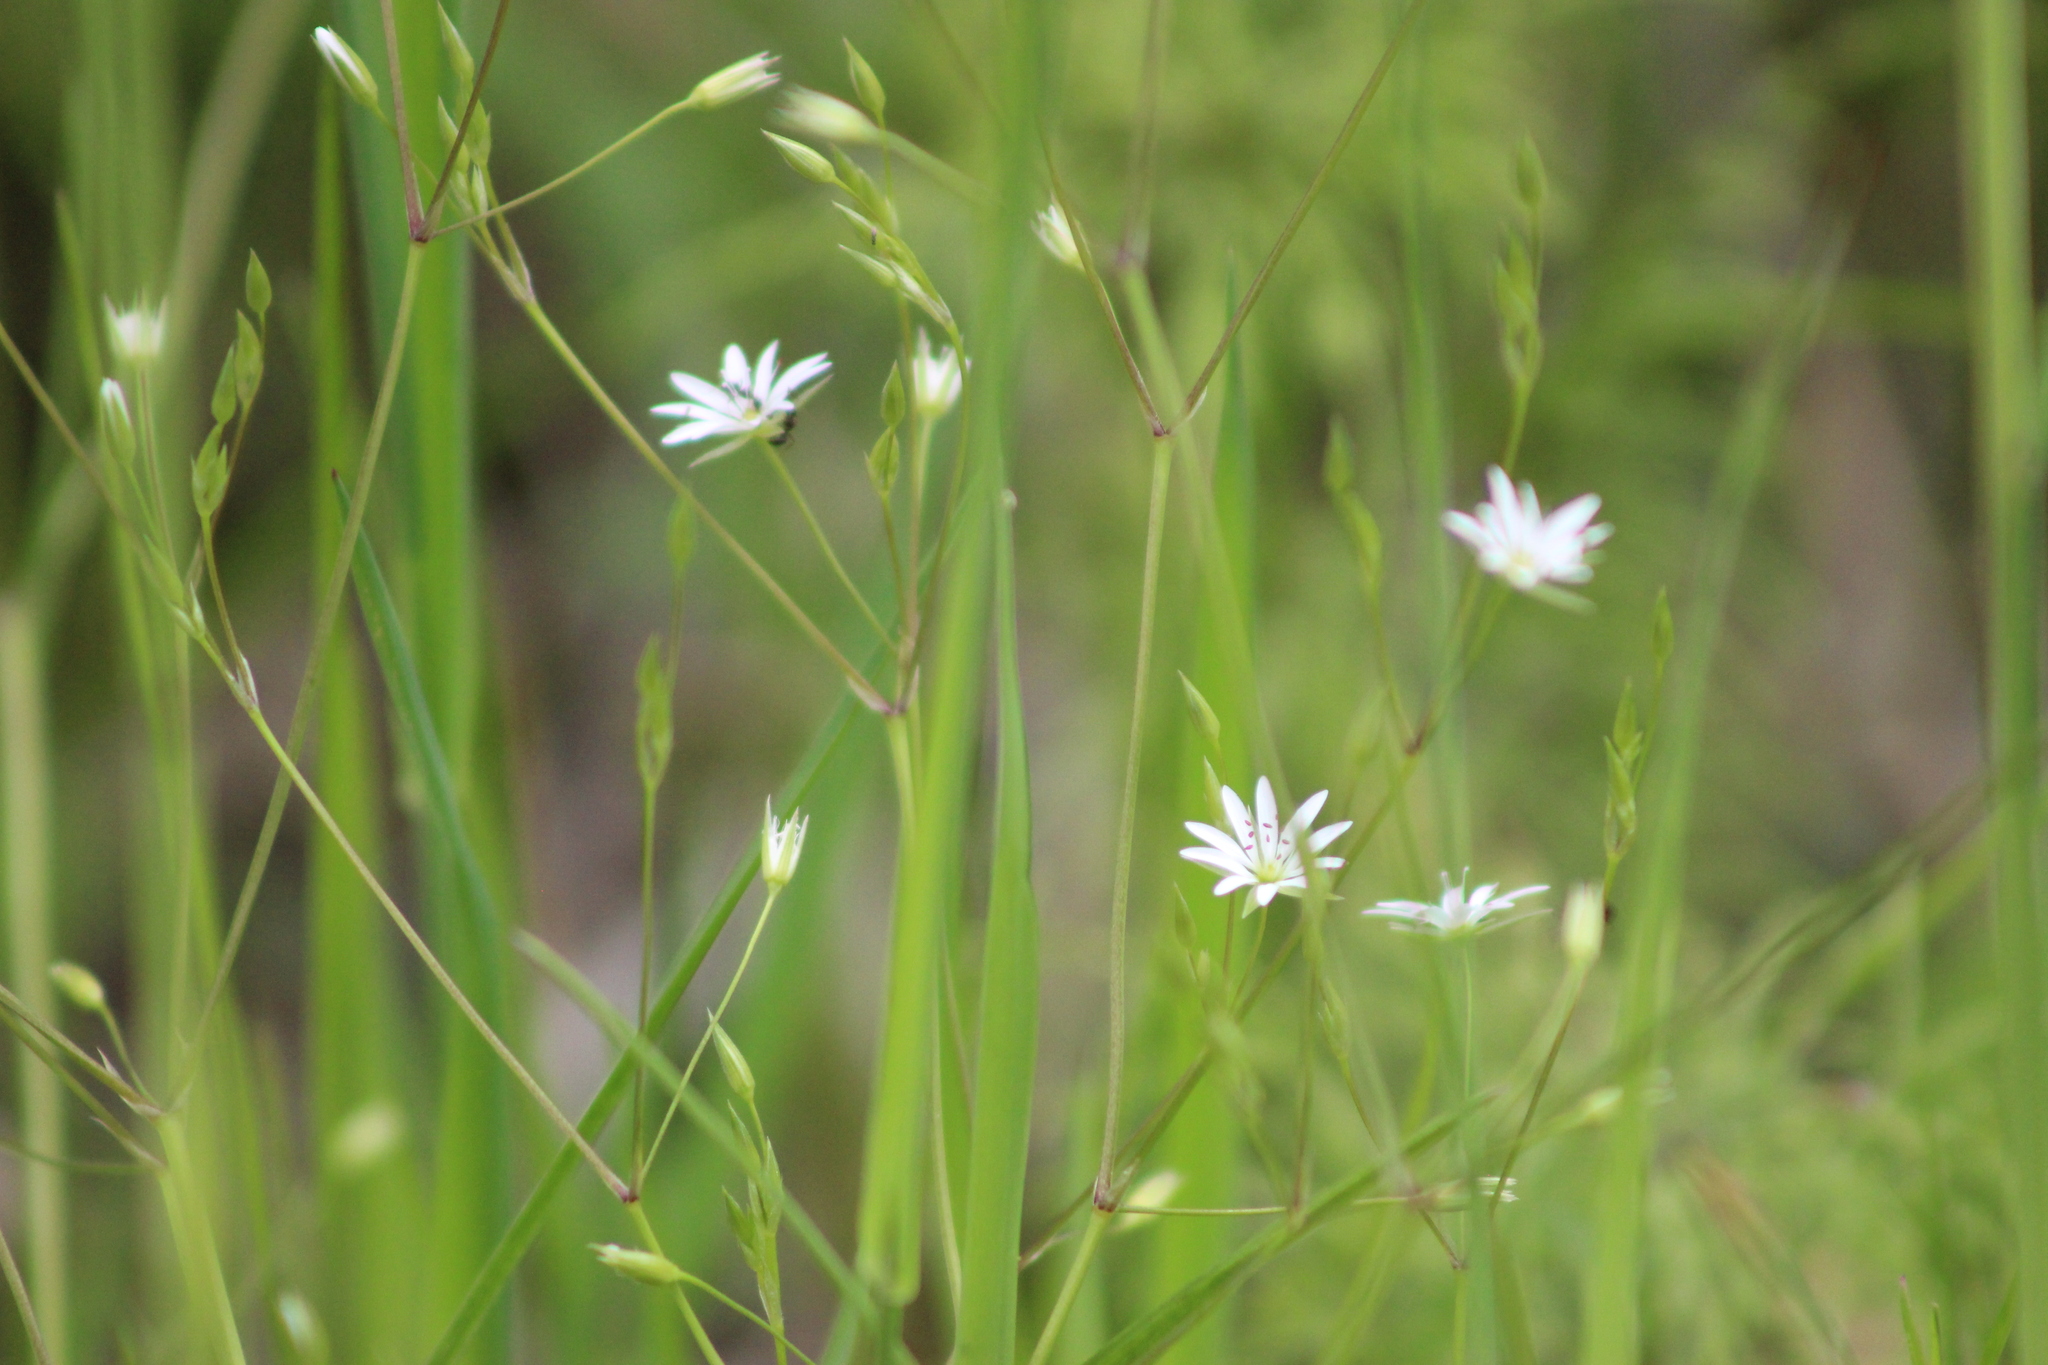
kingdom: Plantae
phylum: Tracheophyta
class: Magnoliopsida
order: Caryophyllales
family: Caryophyllaceae
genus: Stellaria
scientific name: Stellaria graminea
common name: Grass-like starwort
